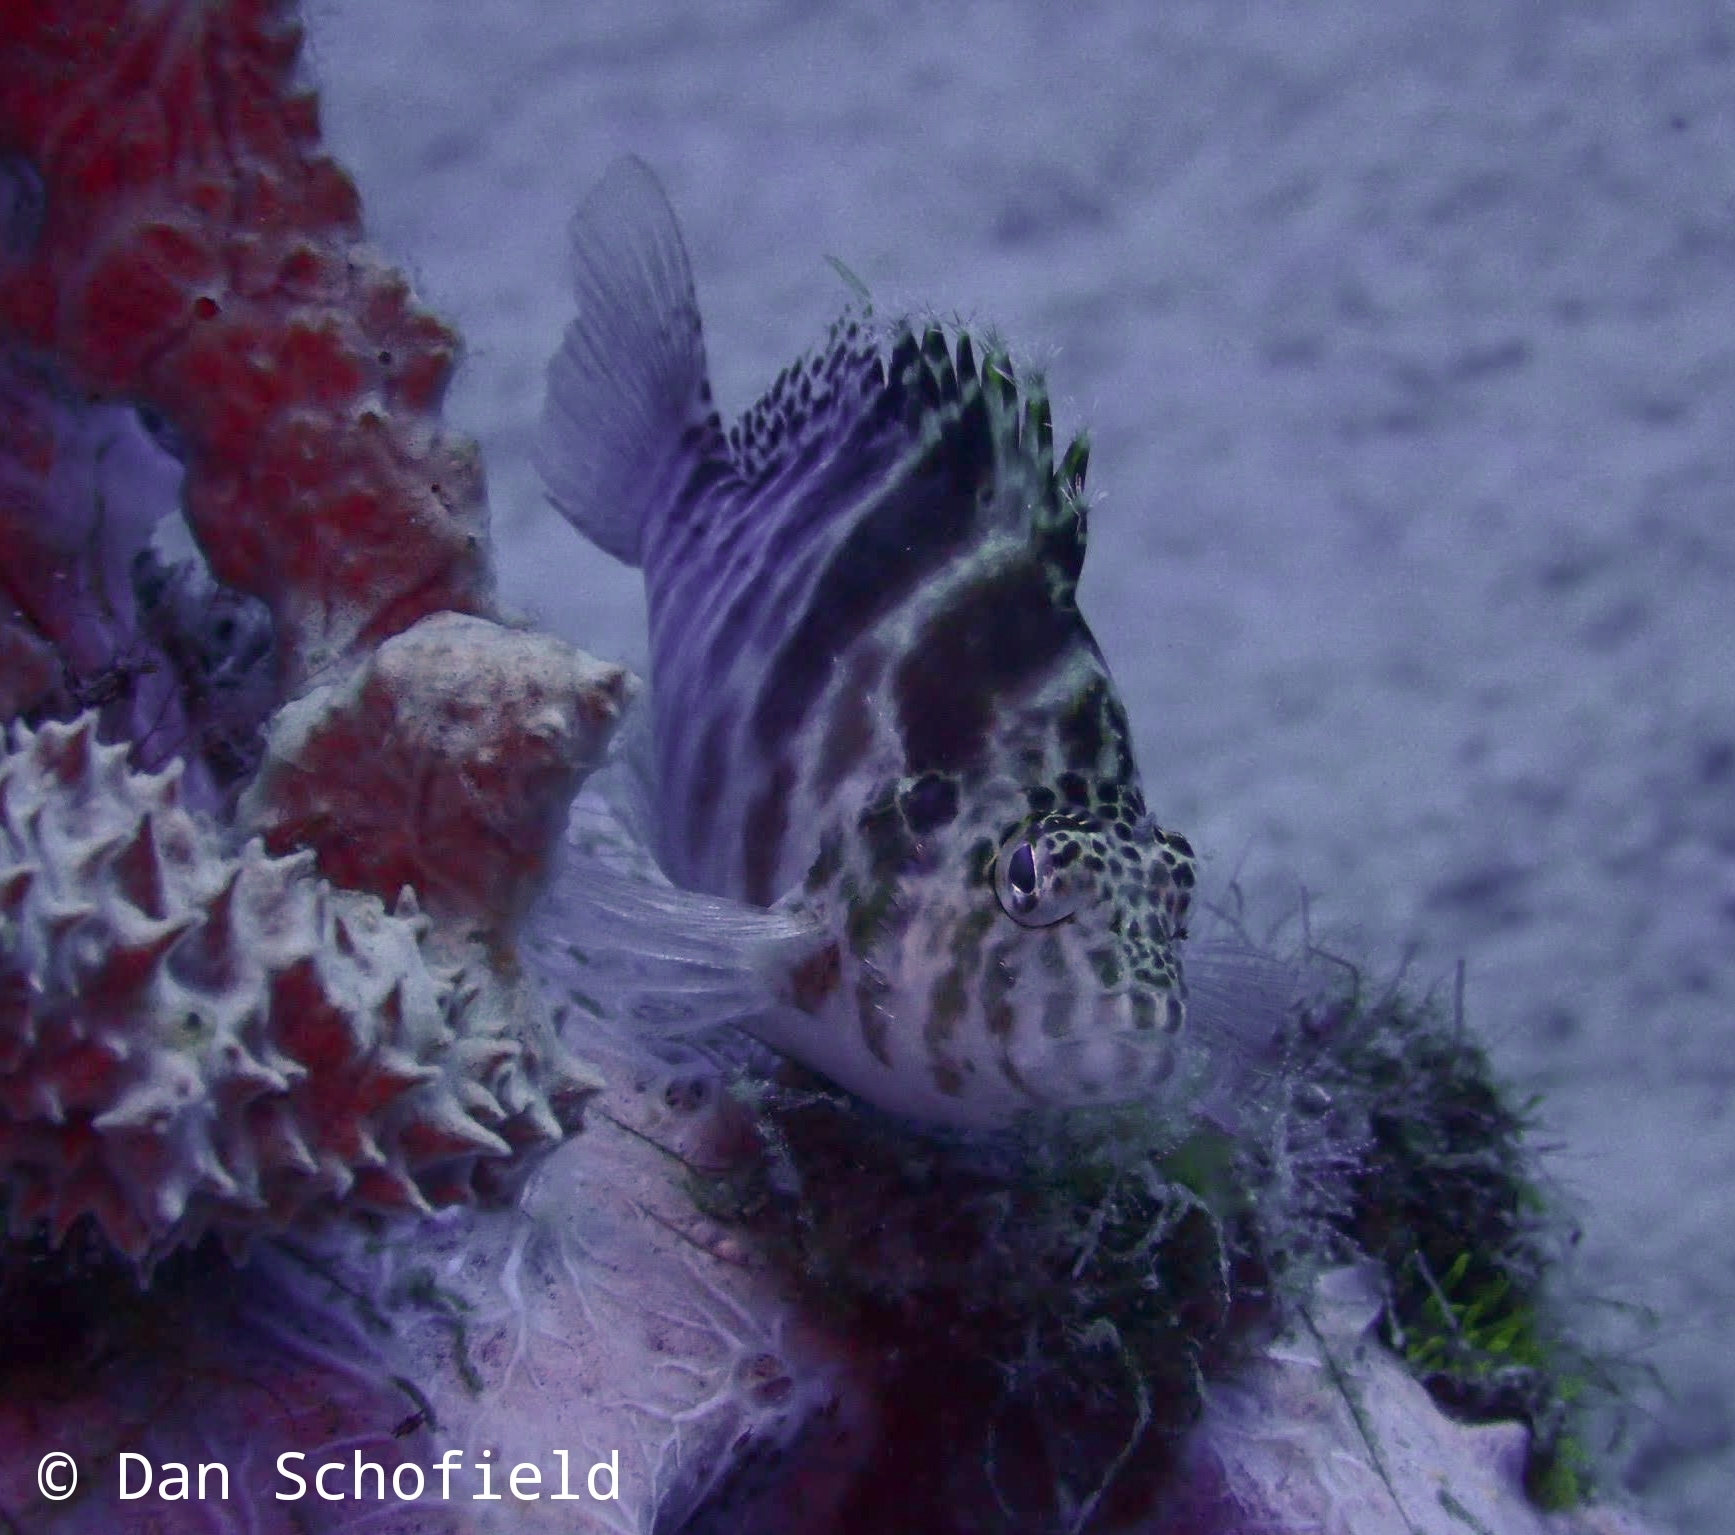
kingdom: Animalia
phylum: Chordata
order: Perciformes
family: Cirrhitidae
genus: Cirrhitichthys
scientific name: Cirrhitichthys aprinus
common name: Blotched hawkfish
